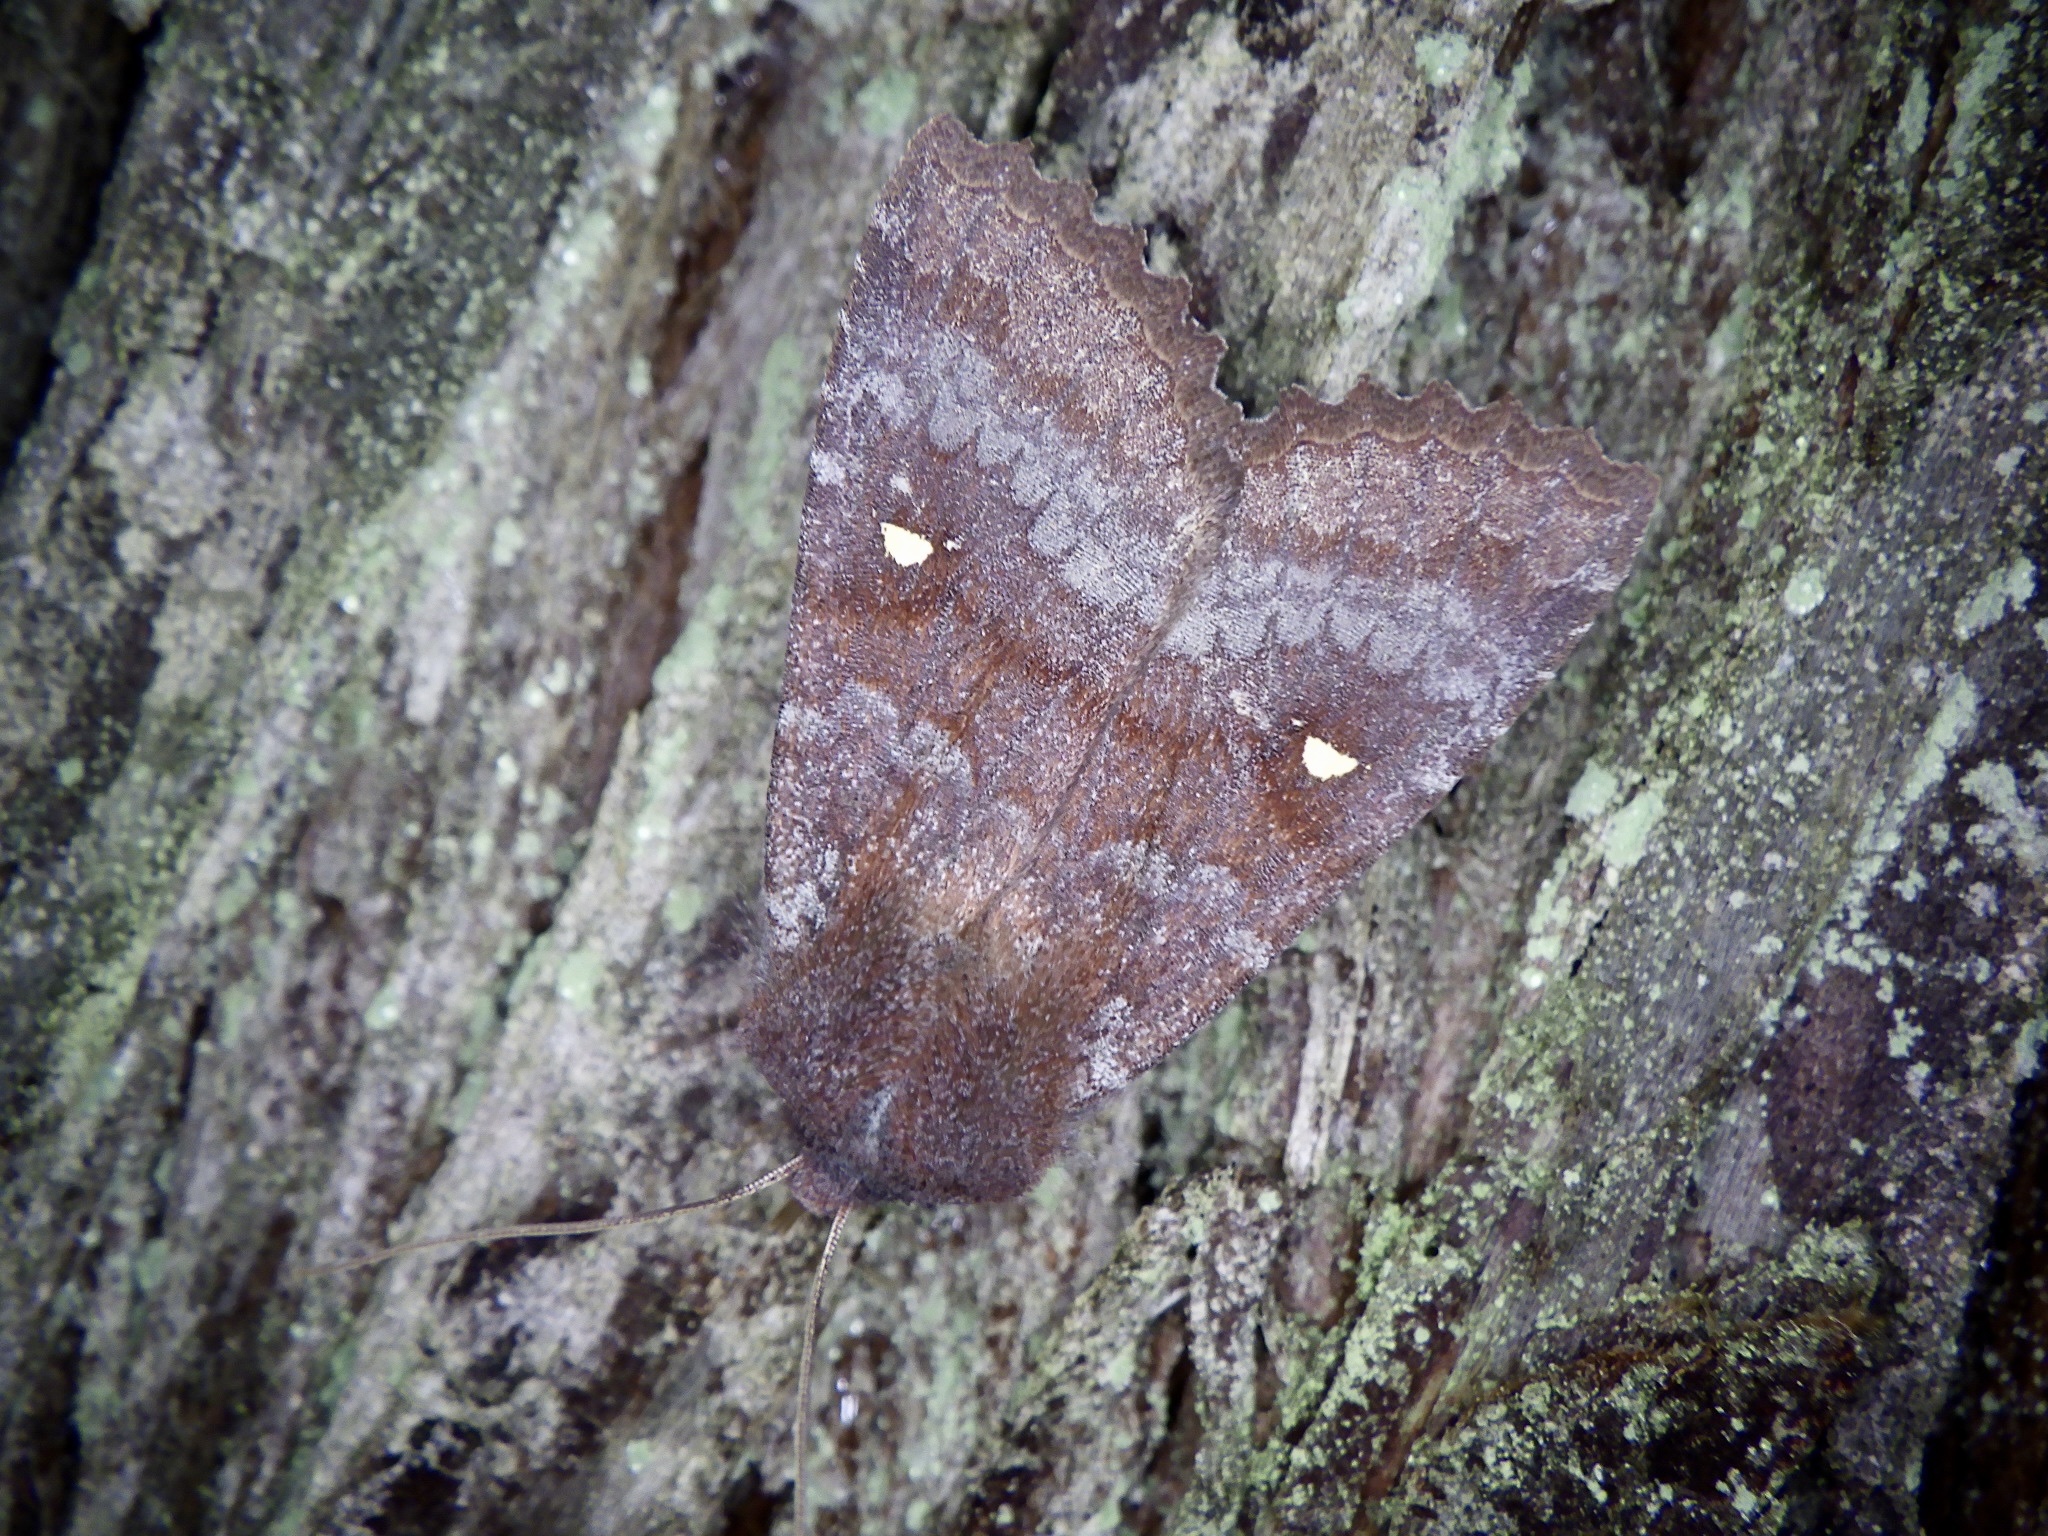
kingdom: Animalia
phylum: Arthropoda
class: Insecta
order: Lepidoptera
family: Noctuidae
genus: Eupsilia
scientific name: Eupsilia unipuncta
